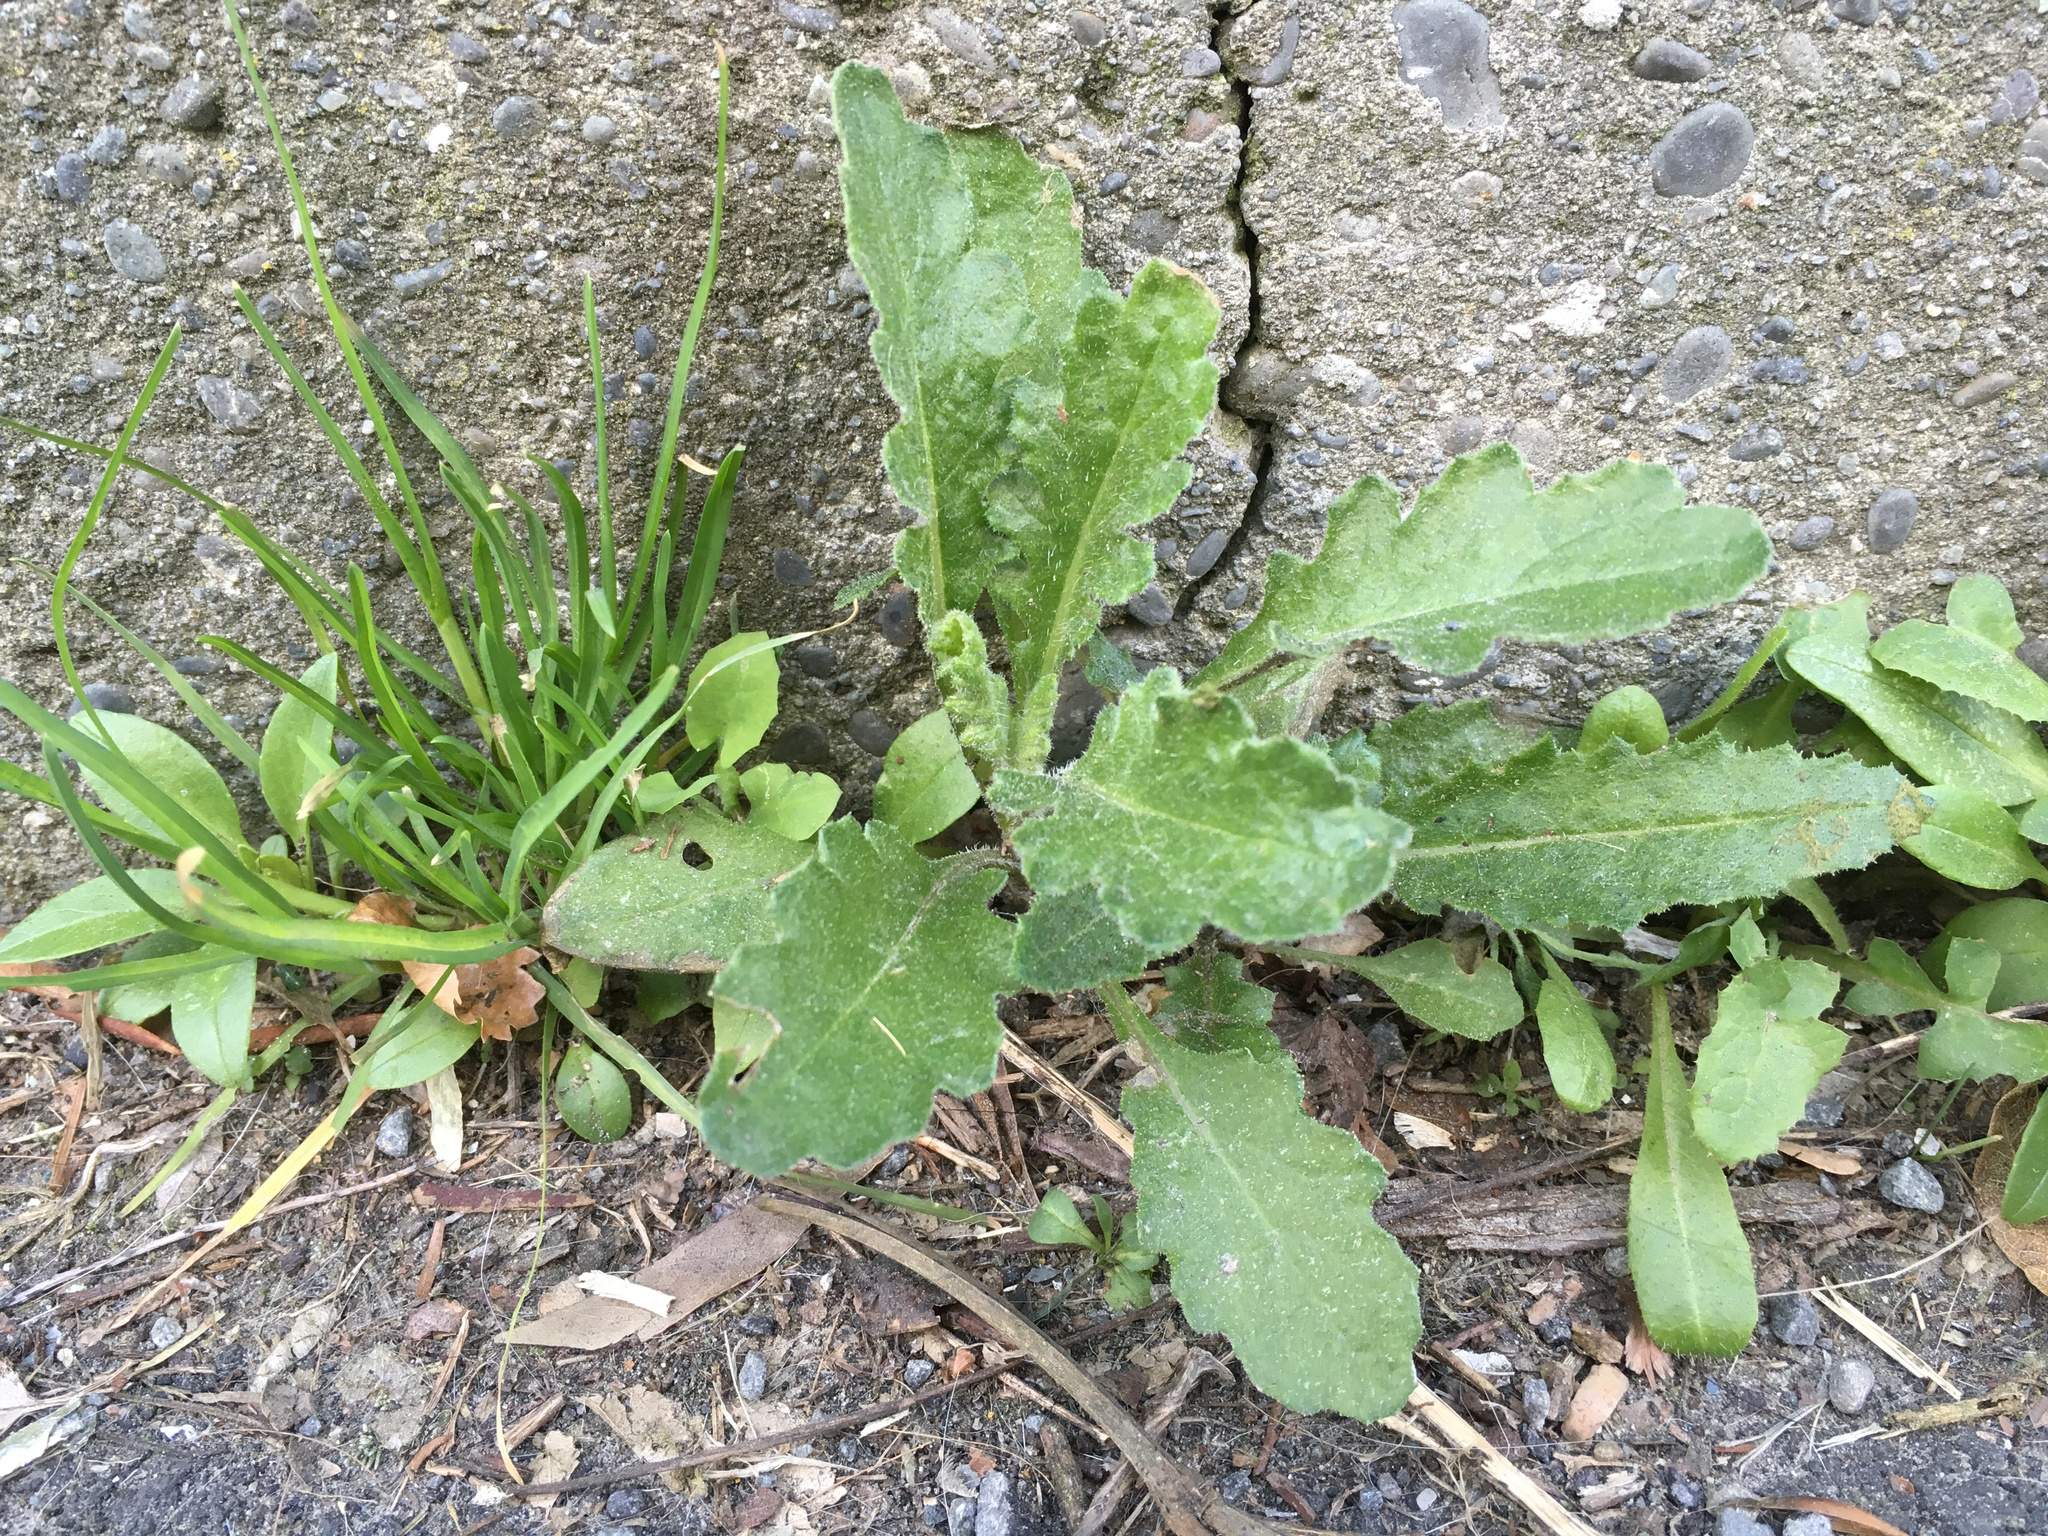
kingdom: Plantae
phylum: Tracheophyta
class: Magnoliopsida
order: Asterales
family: Asteraceae
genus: Senecio
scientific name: Senecio glomeratus
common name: Cutleaf burnweed
